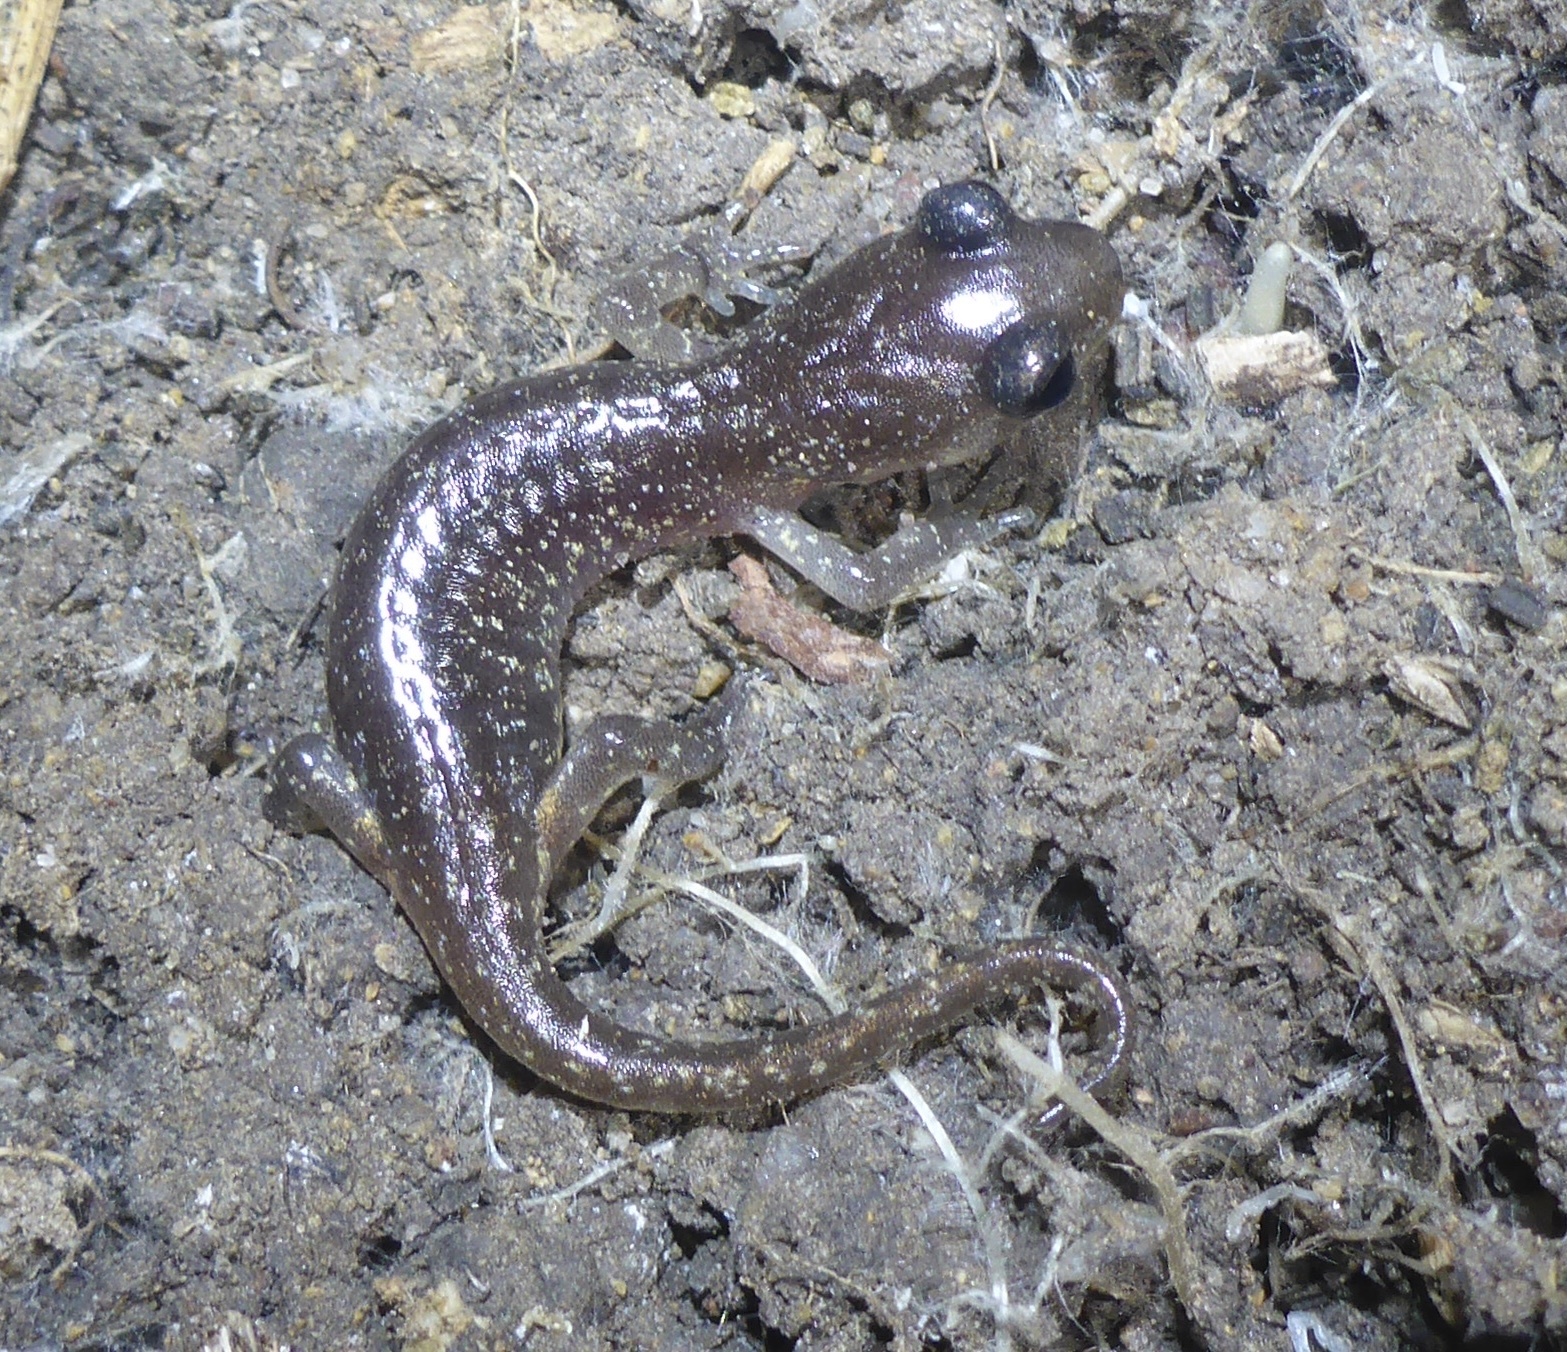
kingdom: Animalia
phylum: Chordata
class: Amphibia
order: Caudata
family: Plethodontidae
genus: Aneides
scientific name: Aneides lugubris
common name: Arboreal salamander
